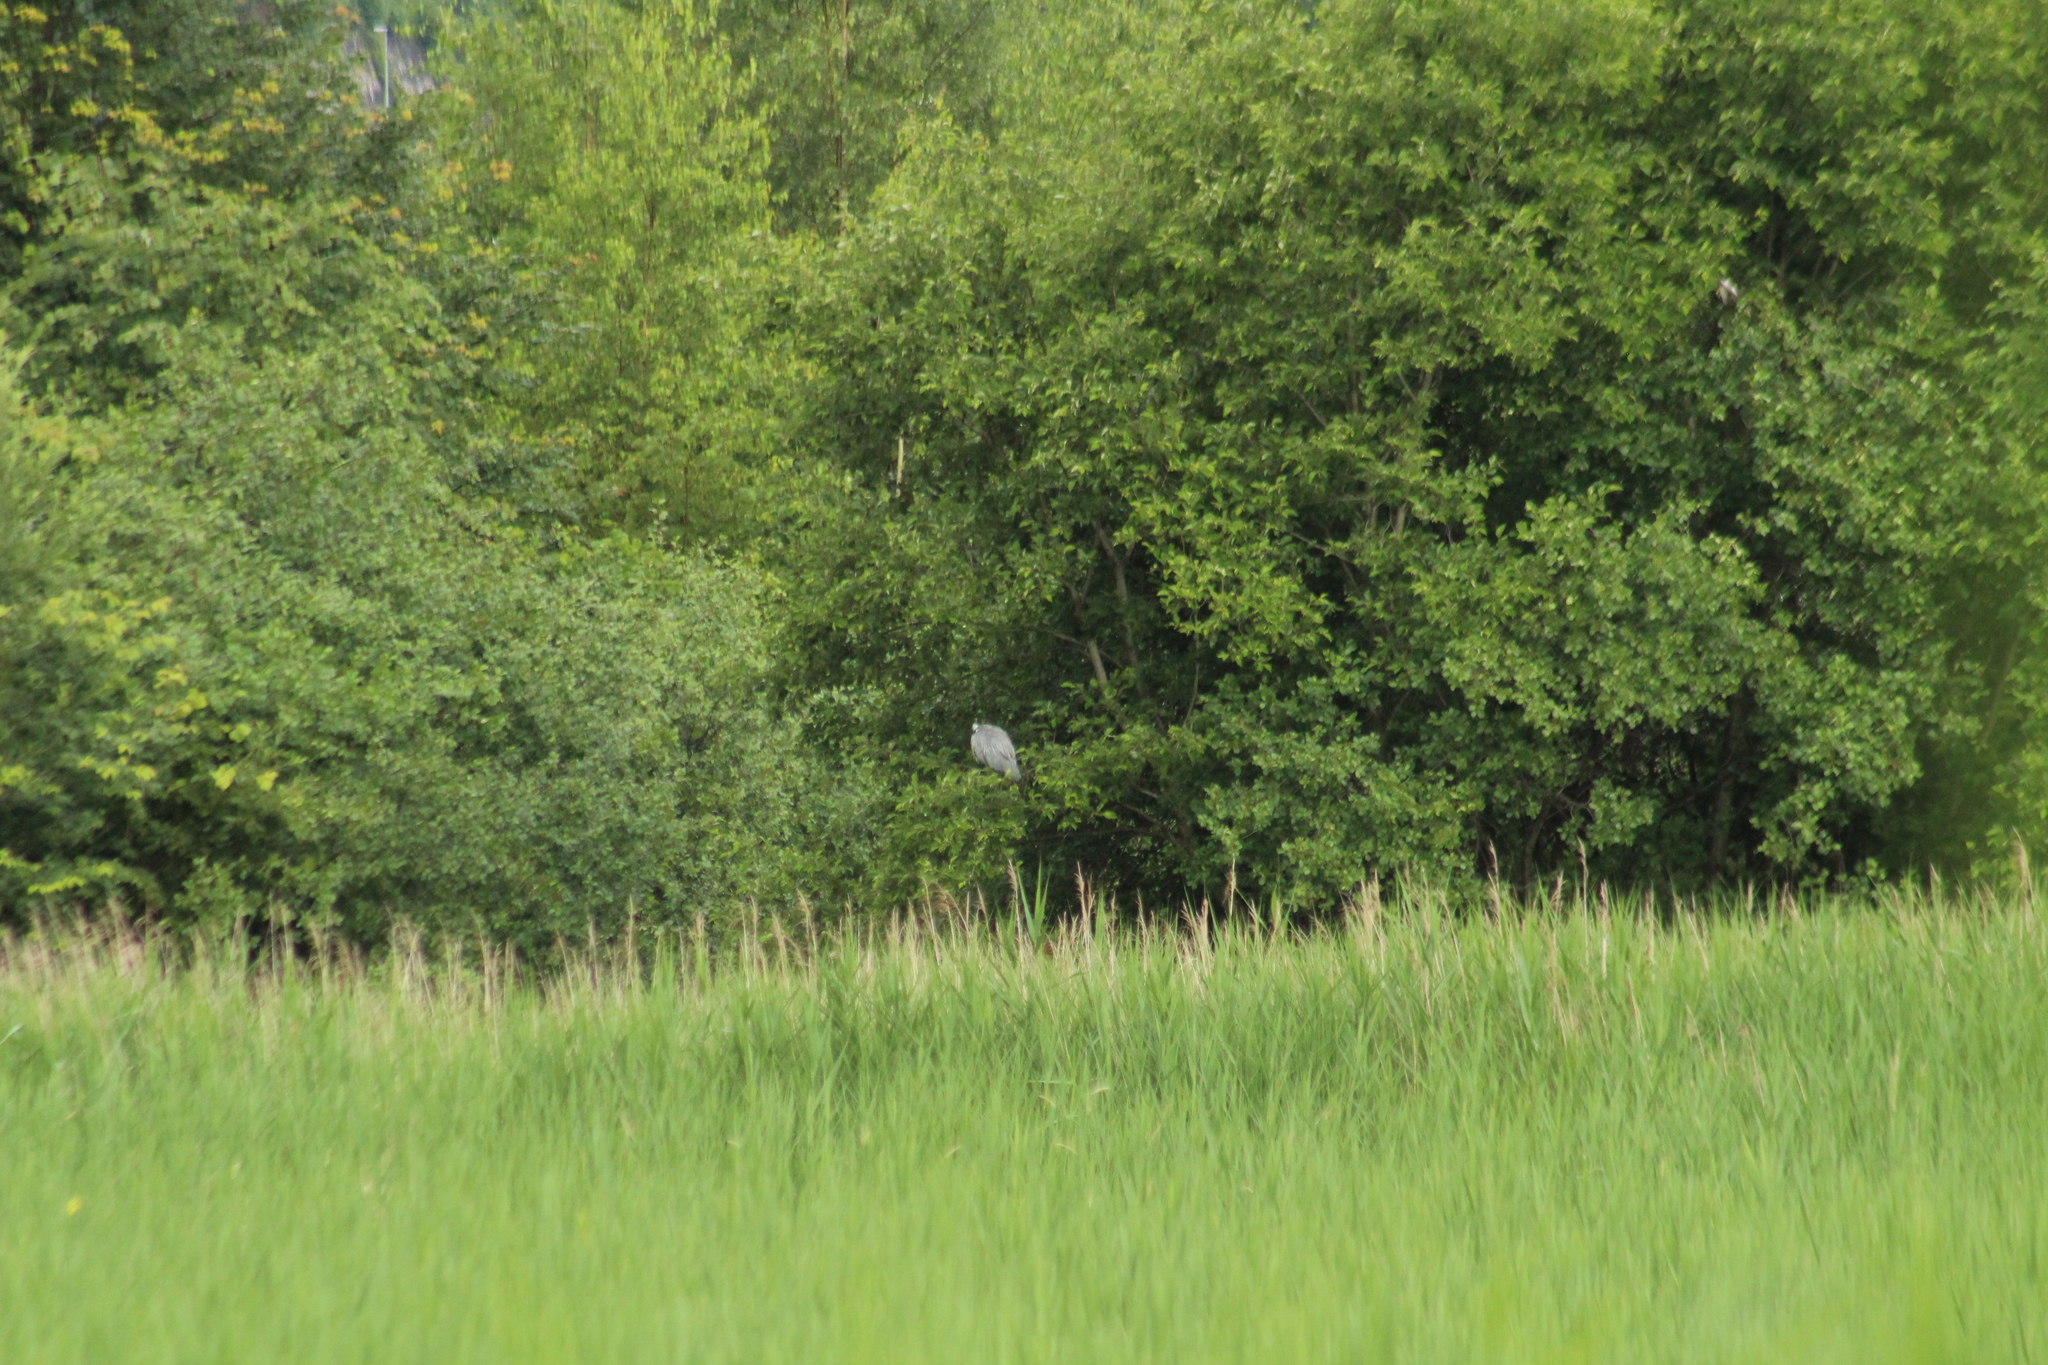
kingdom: Animalia
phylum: Chordata
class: Aves
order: Pelecaniformes
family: Ardeidae
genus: Ardea
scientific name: Ardea cinerea
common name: Grey heron
